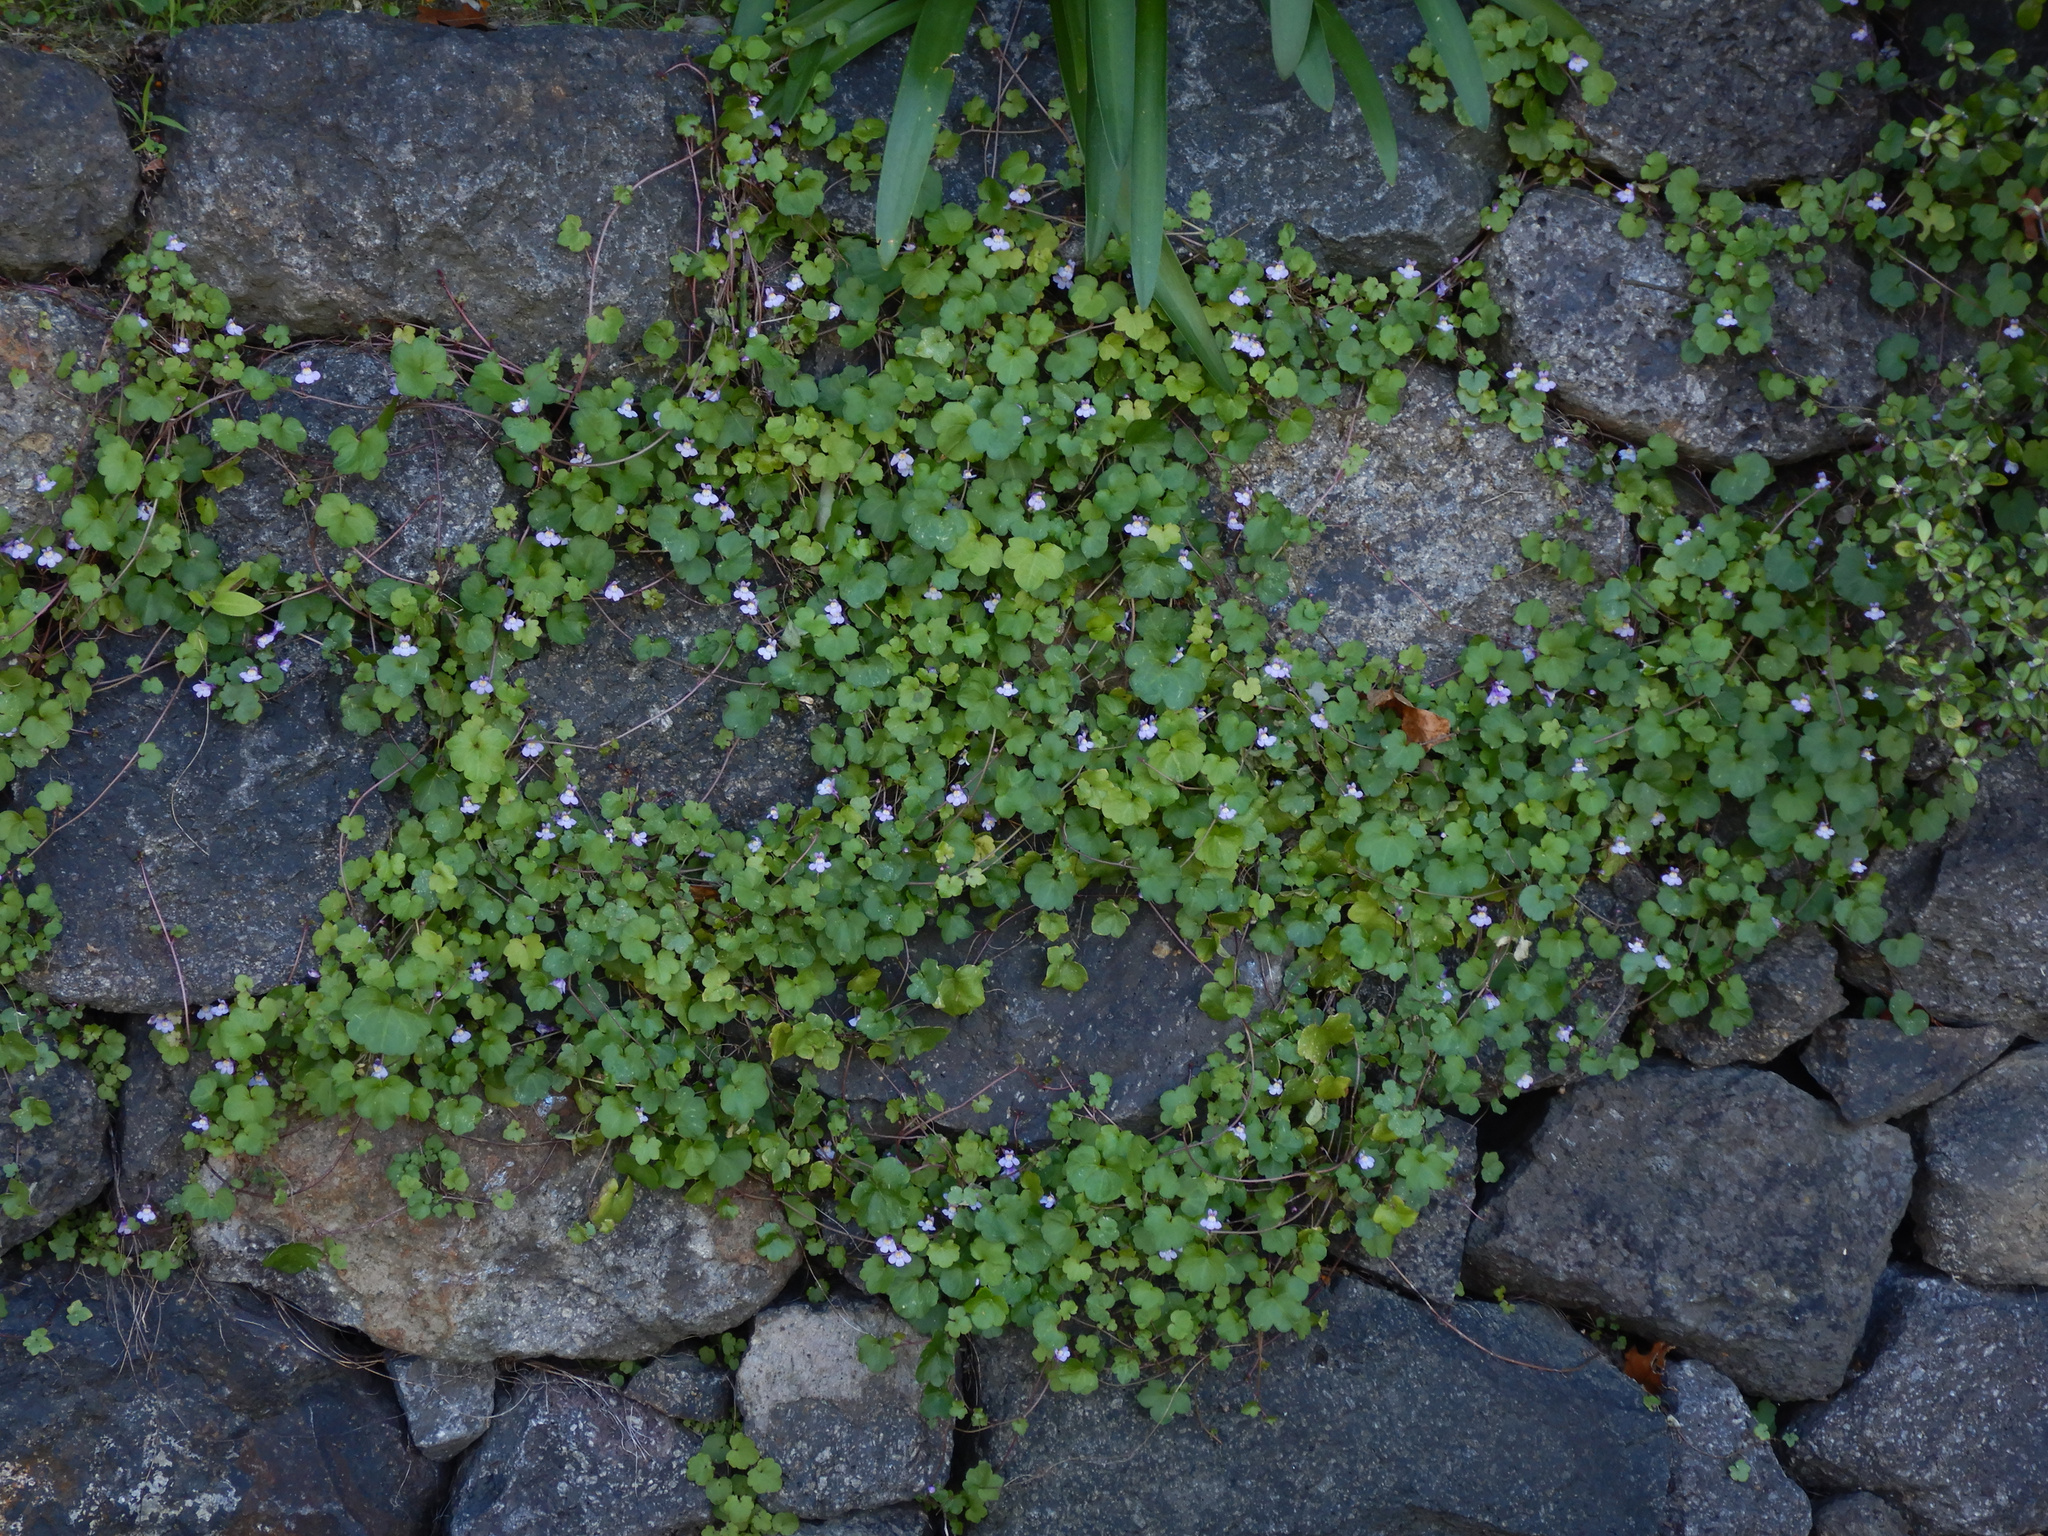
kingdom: Plantae
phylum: Tracheophyta
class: Magnoliopsida
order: Lamiales
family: Plantaginaceae
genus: Cymbalaria
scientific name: Cymbalaria muralis
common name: Ivy-leaved toadflax
